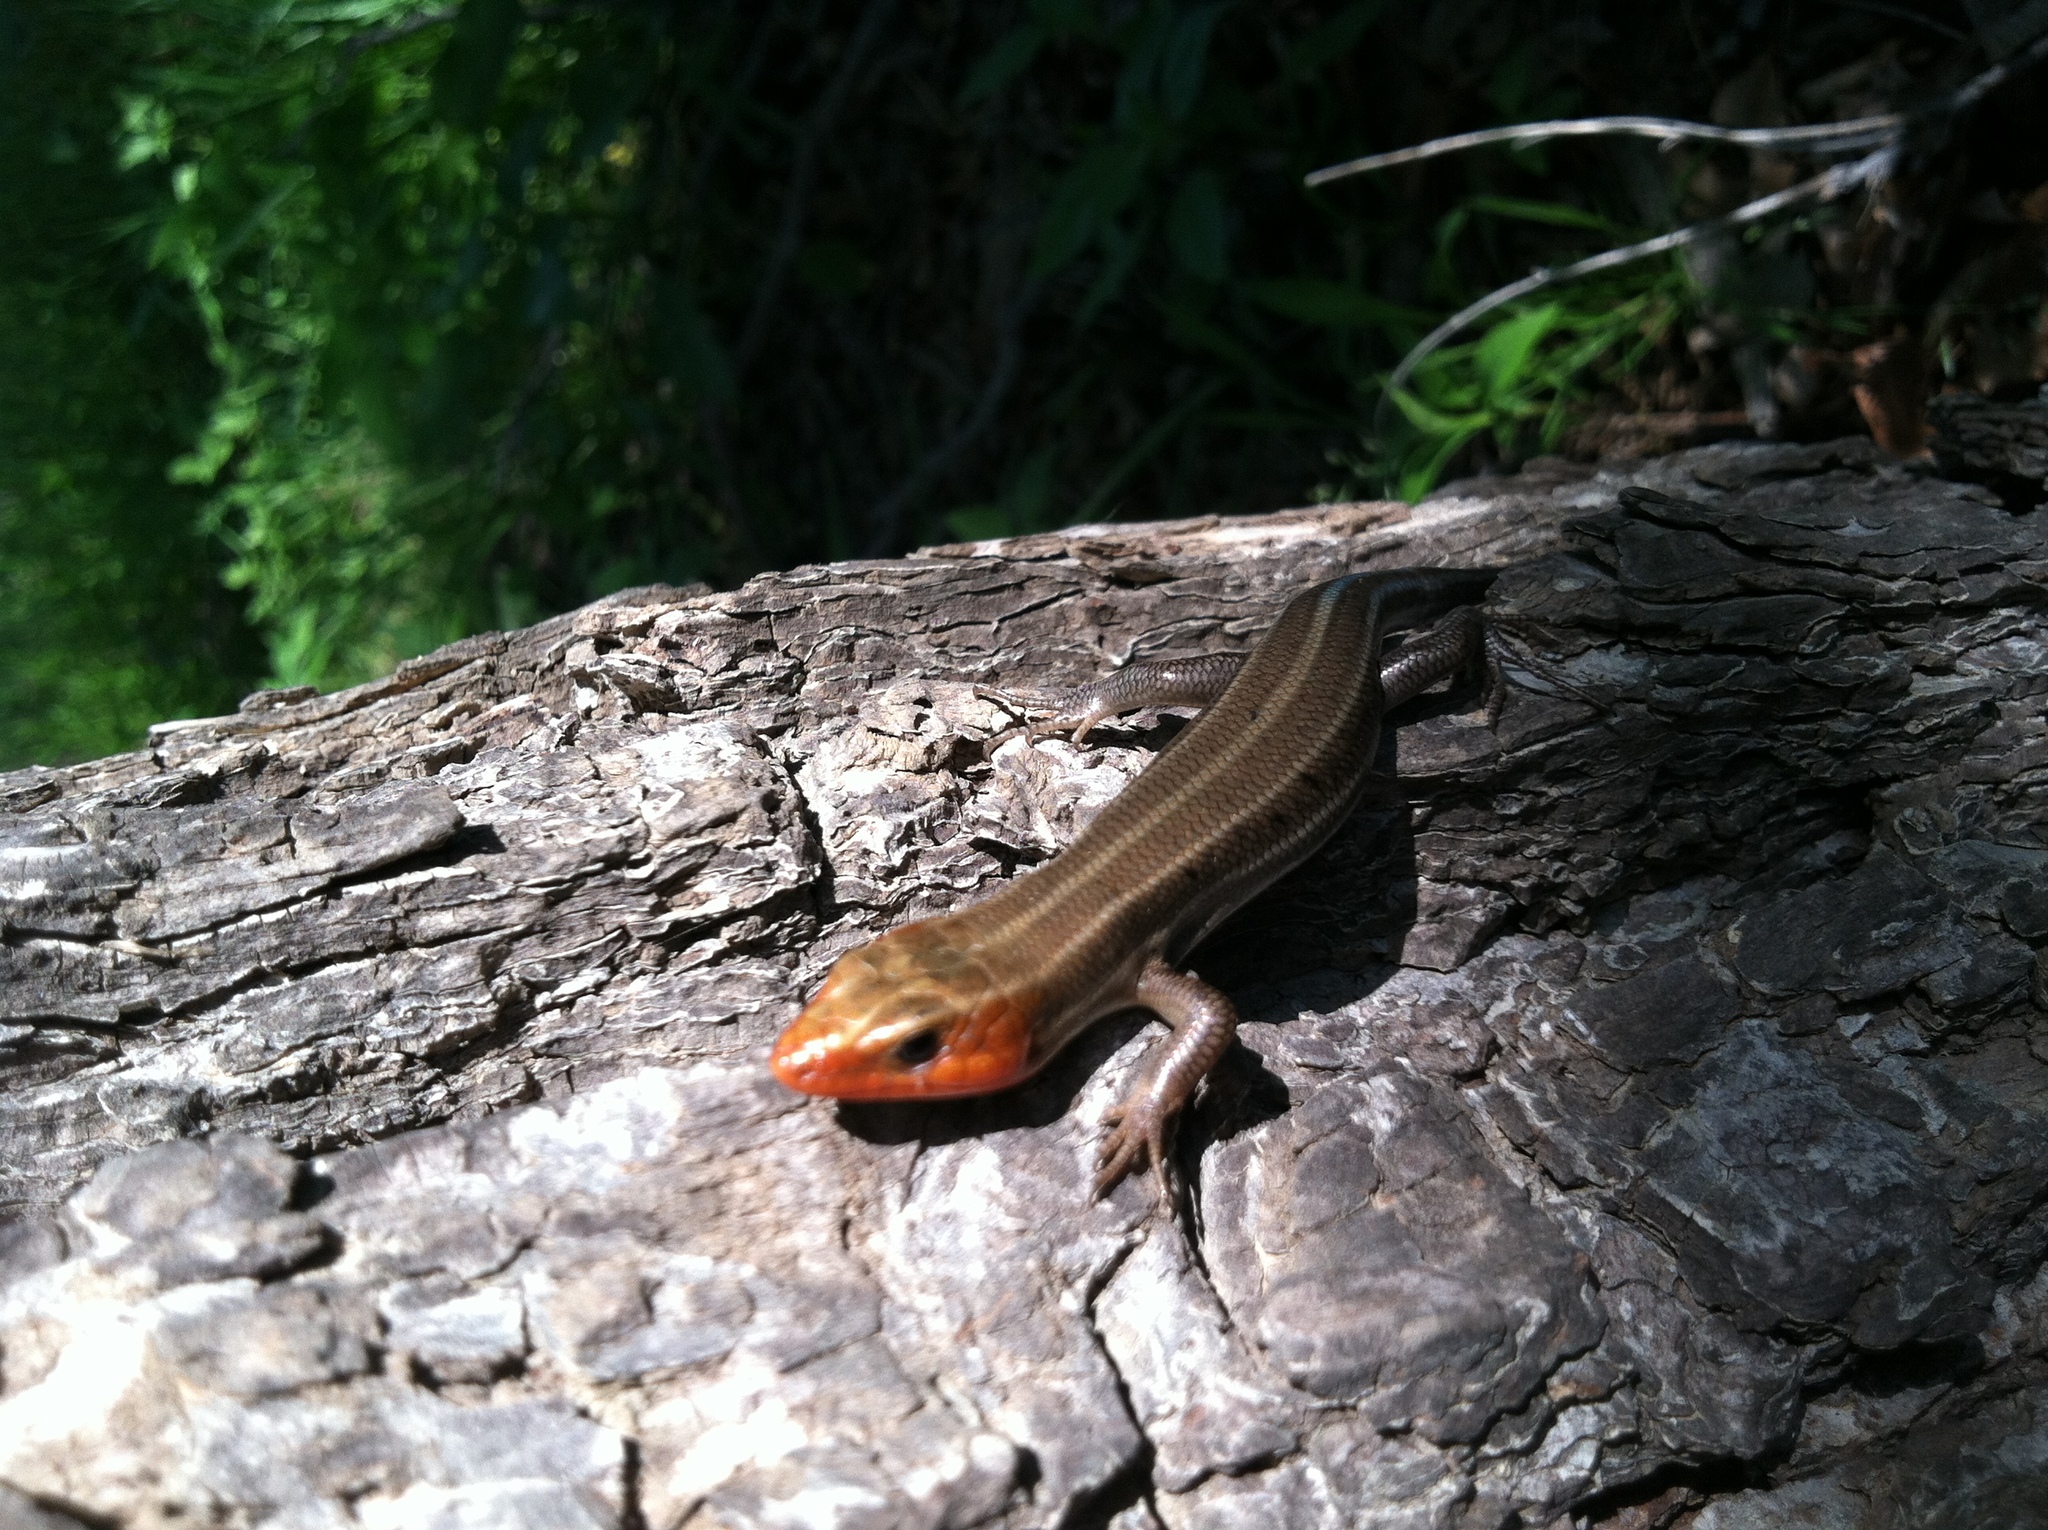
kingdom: Animalia
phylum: Chordata
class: Squamata
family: Scincidae
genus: Plestiodon
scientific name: Plestiodon laticeps
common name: Broadhead skink
